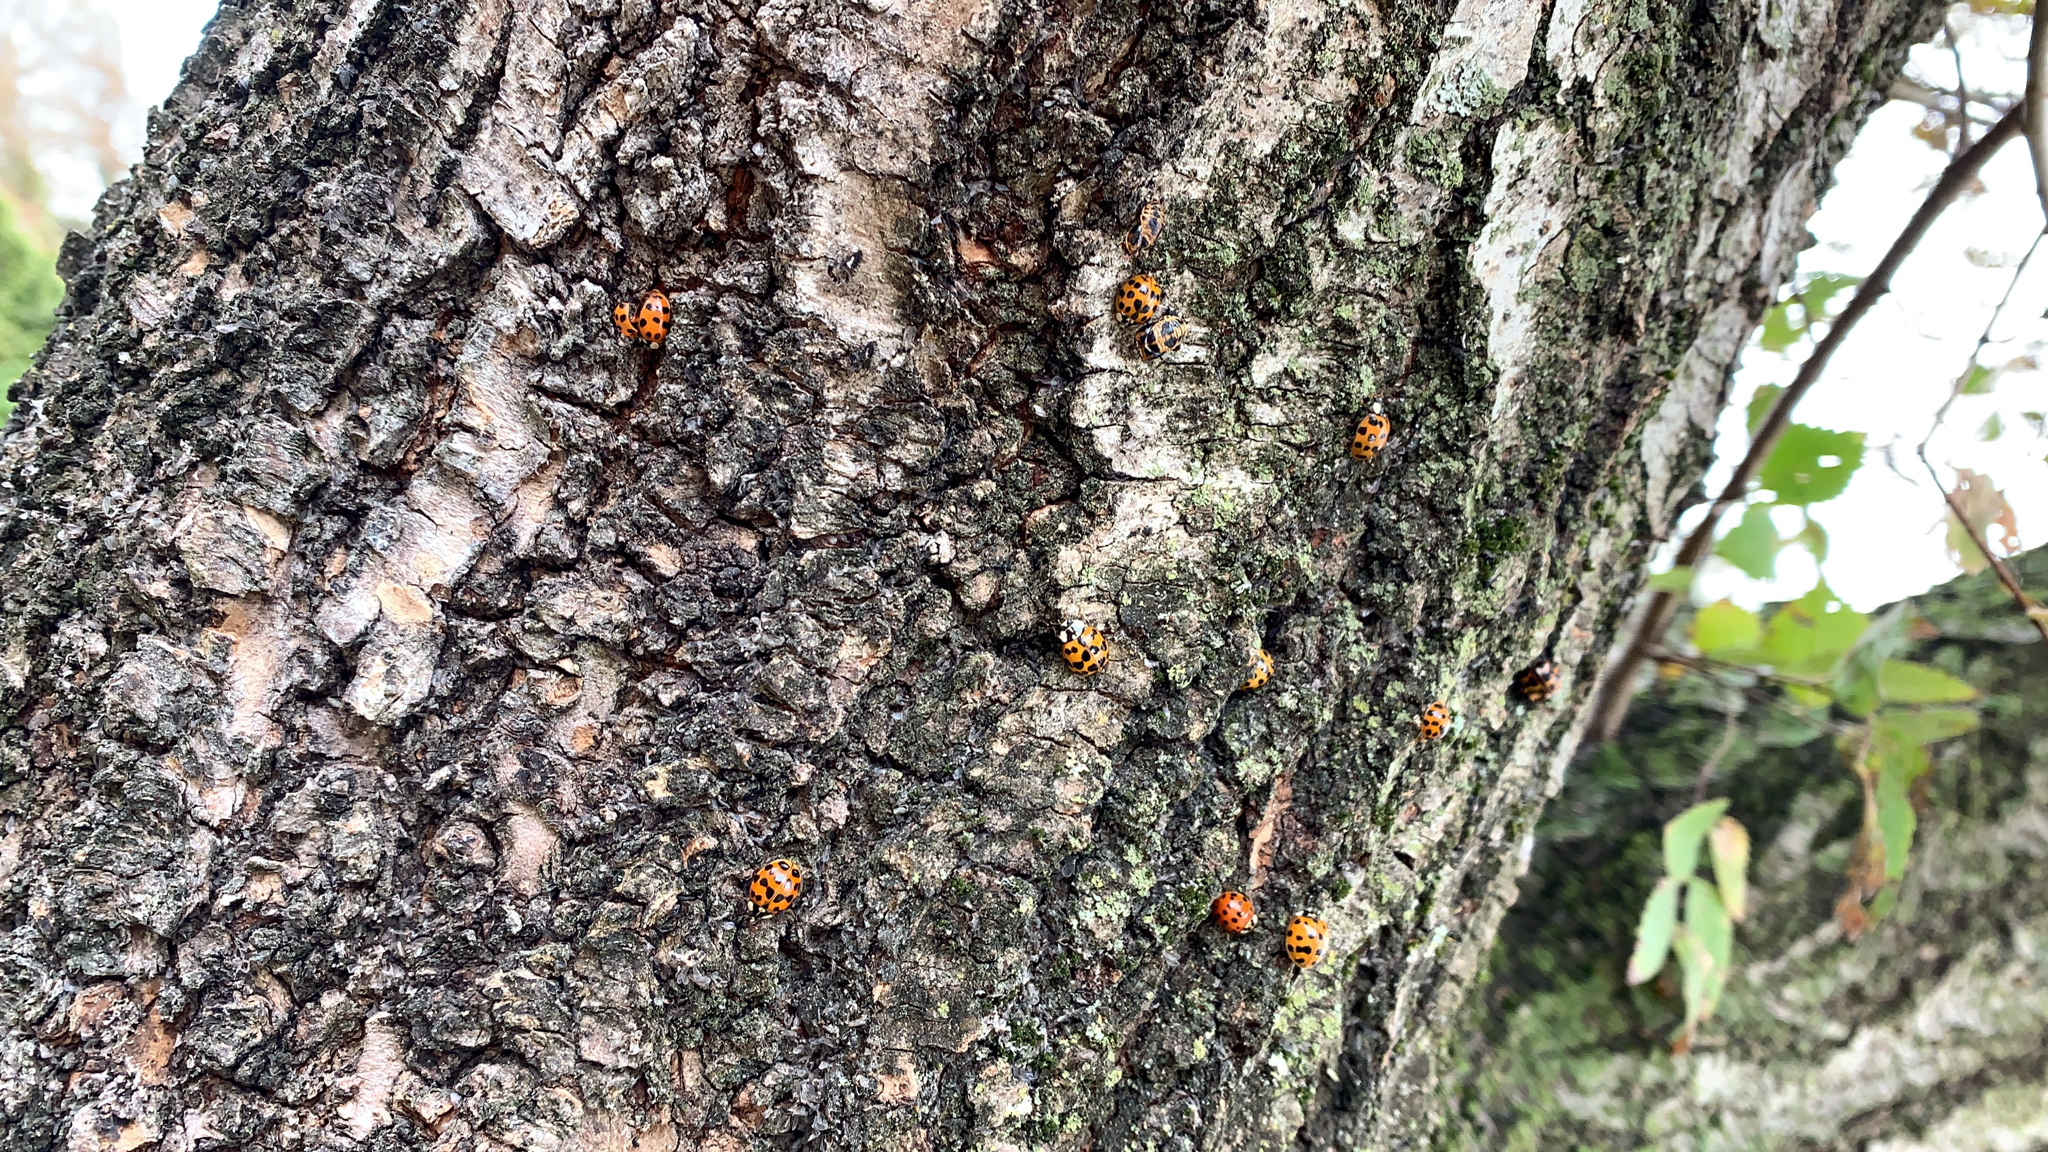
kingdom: Animalia
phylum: Arthropoda
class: Insecta
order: Coleoptera
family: Coccinellidae
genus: Harmonia
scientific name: Harmonia axyridis
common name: Harlequin ladybird
